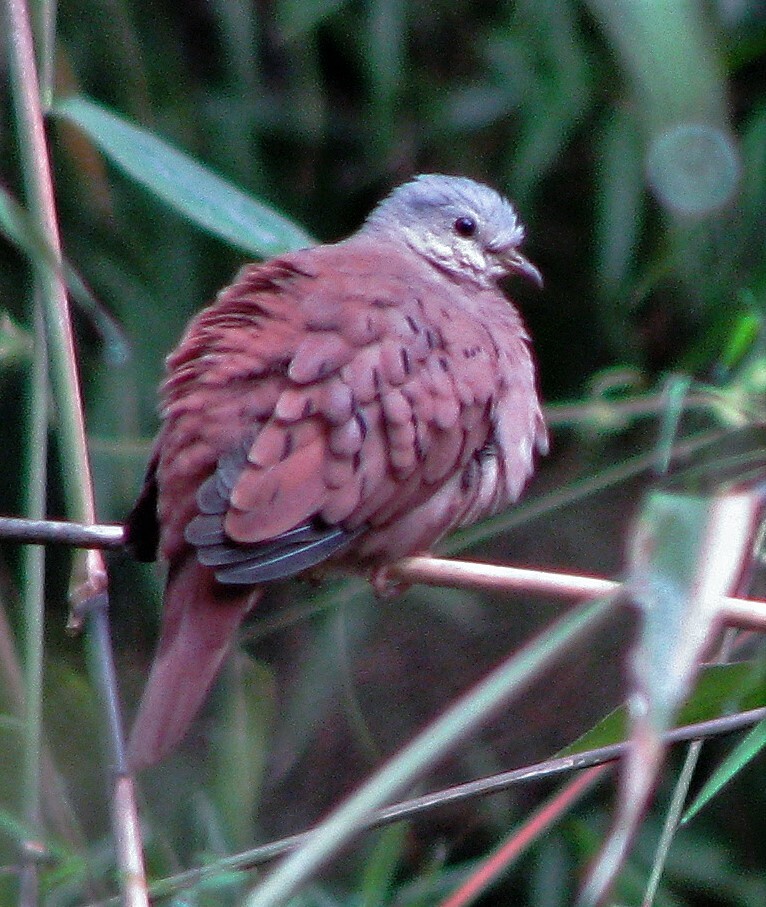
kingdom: Animalia
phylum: Chordata
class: Aves
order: Columbiformes
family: Columbidae
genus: Columbina
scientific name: Columbina talpacoti
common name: Ruddy ground dove
